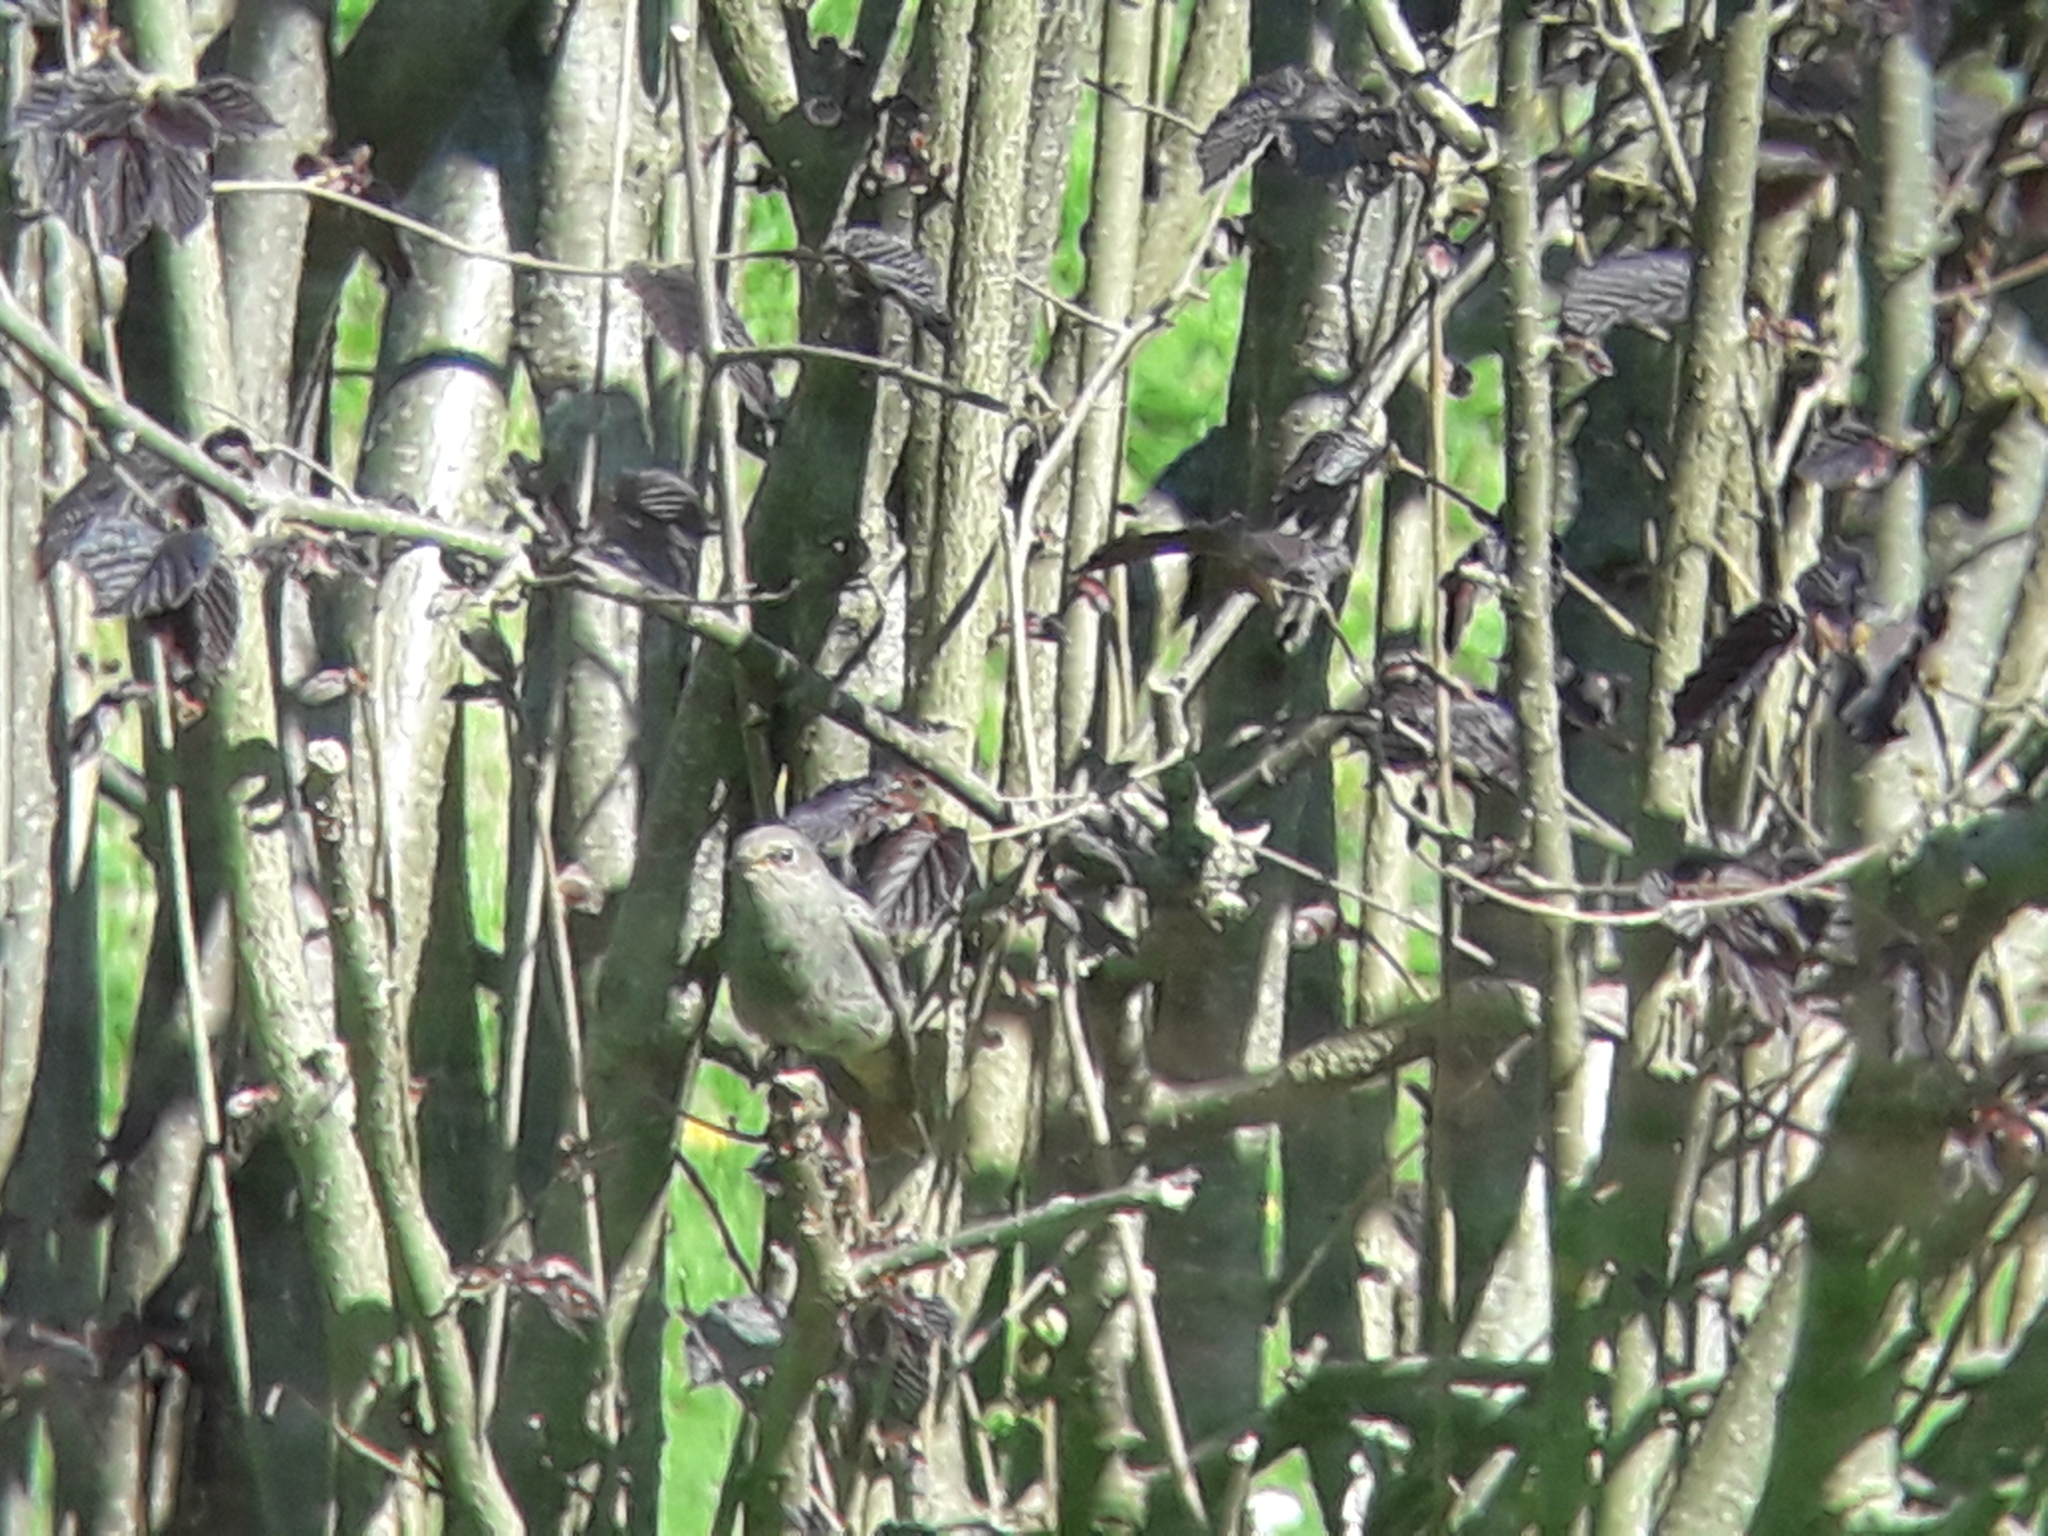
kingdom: Animalia
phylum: Chordata
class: Aves
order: Passeriformes
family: Muscicapidae
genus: Phoenicurus
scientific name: Phoenicurus ochruros
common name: Black redstart
